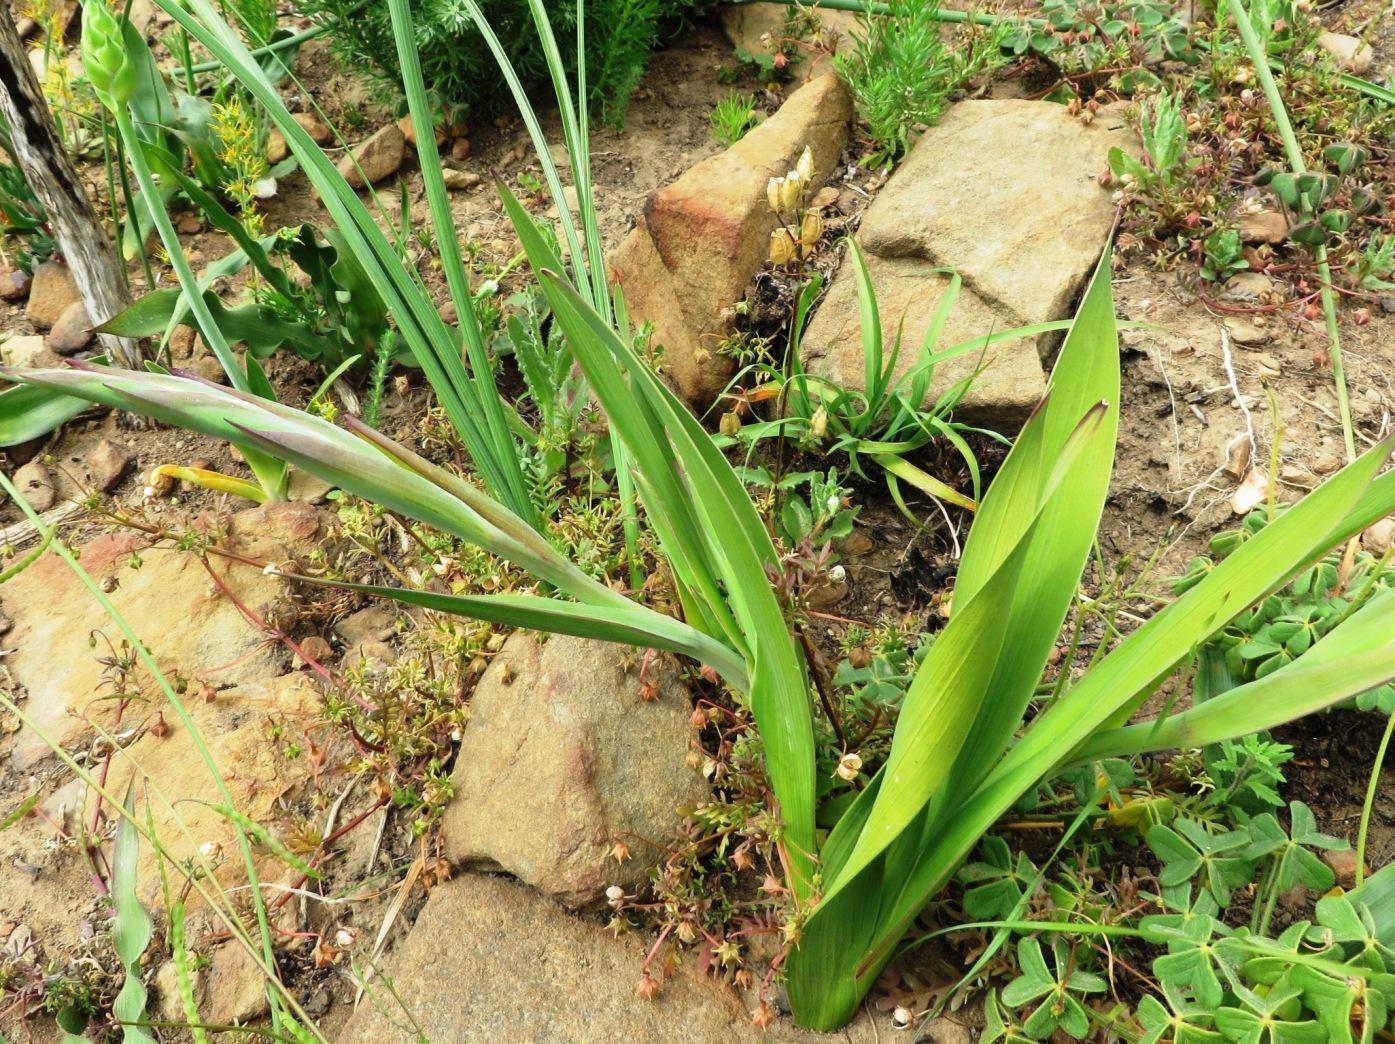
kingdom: Plantae
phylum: Tracheophyta
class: Liliopsida
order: Asparagales
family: Iridaceae
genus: Gladiolus
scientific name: Gladiolus carneus
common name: Painted-lady
